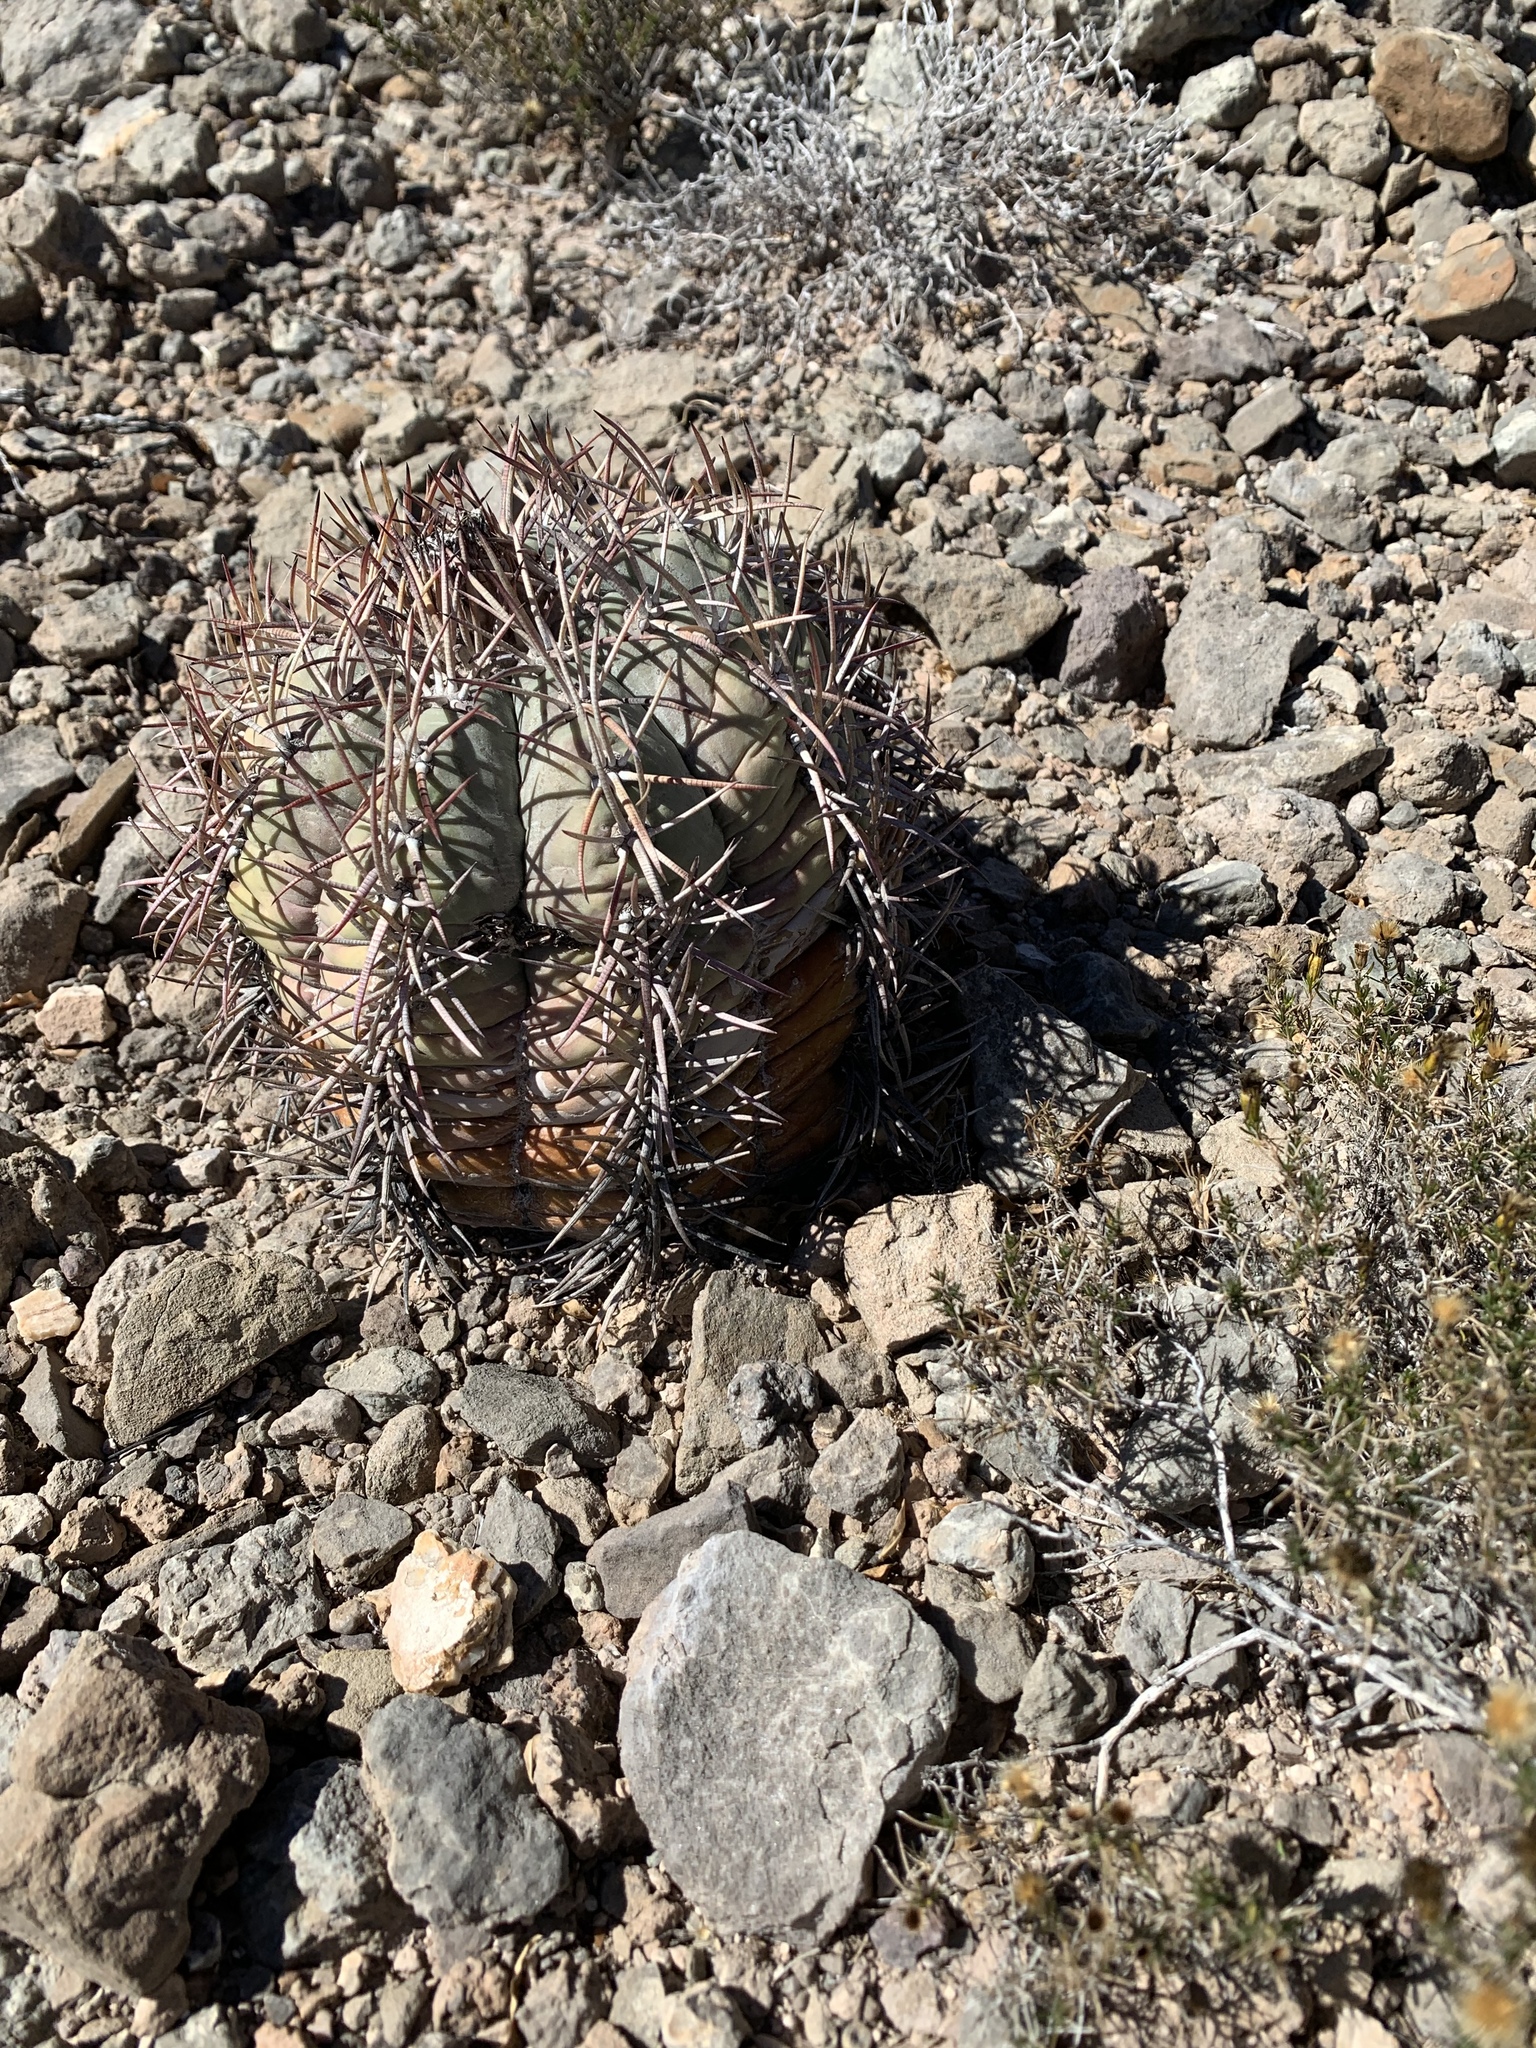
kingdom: Plantae
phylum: Tracheophyta
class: Magnoliopsida
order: Caryophyllales
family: Cactaceae
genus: Echinocactus
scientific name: Echinocactus horizonthalonius
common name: Devilshead
